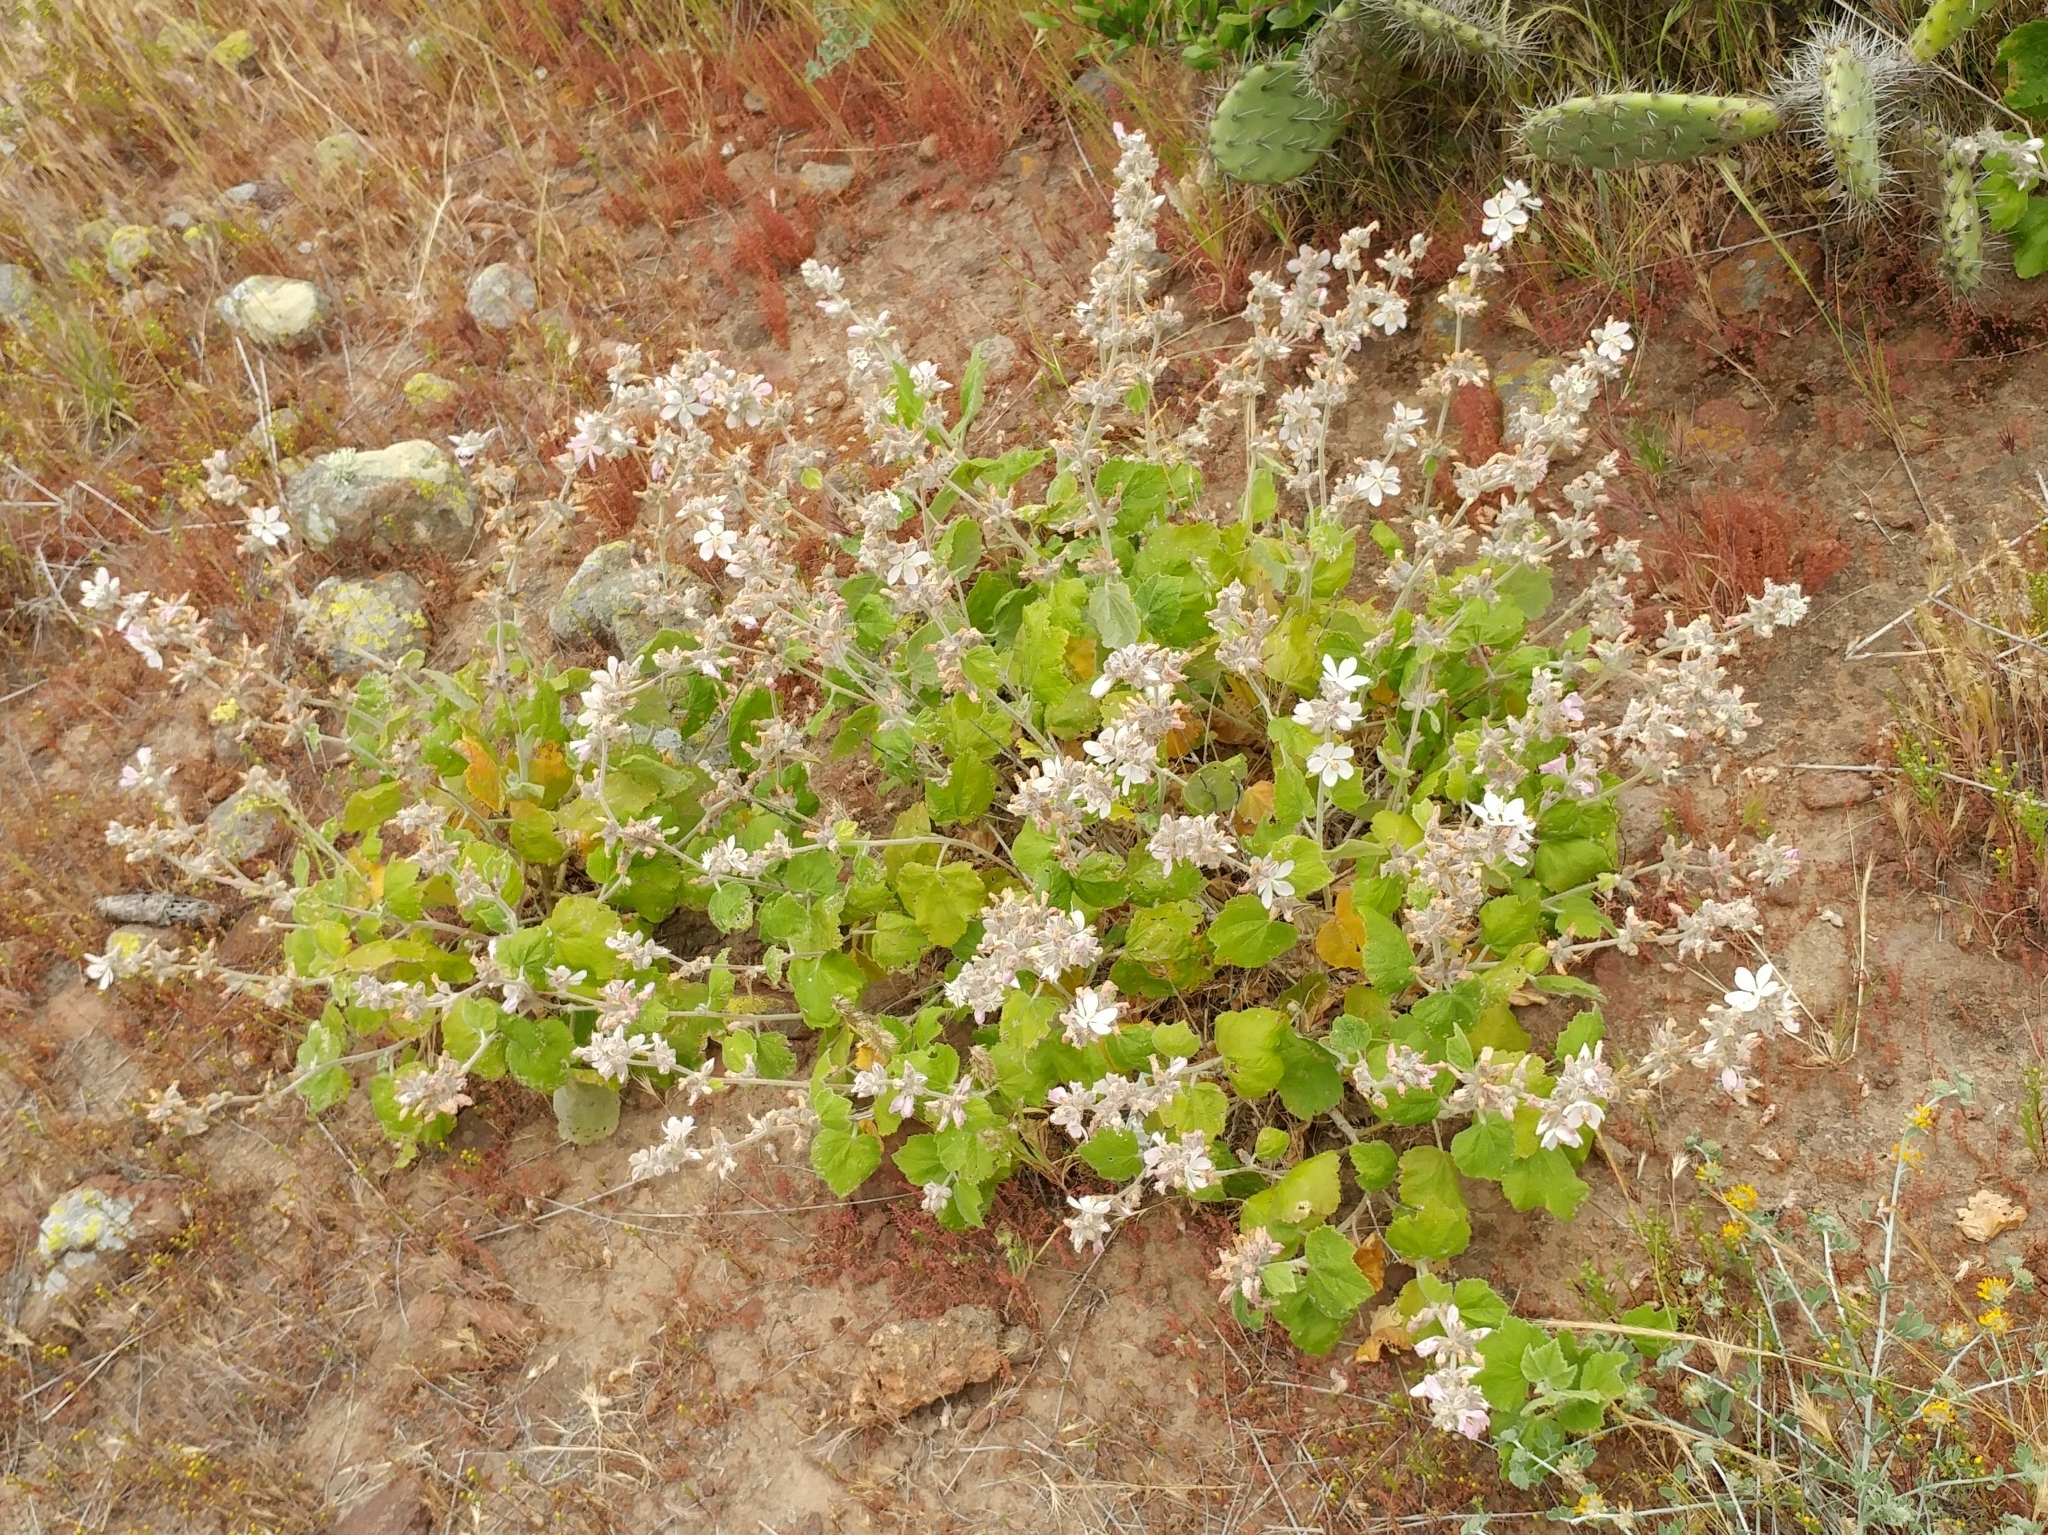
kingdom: Plantae
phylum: Tracheophyta
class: Magnoliopsida
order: Malvales
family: Malvaceae
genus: Malacothamnus
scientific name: Malacothamnus clementinus
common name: San clemente island bush-mallow
